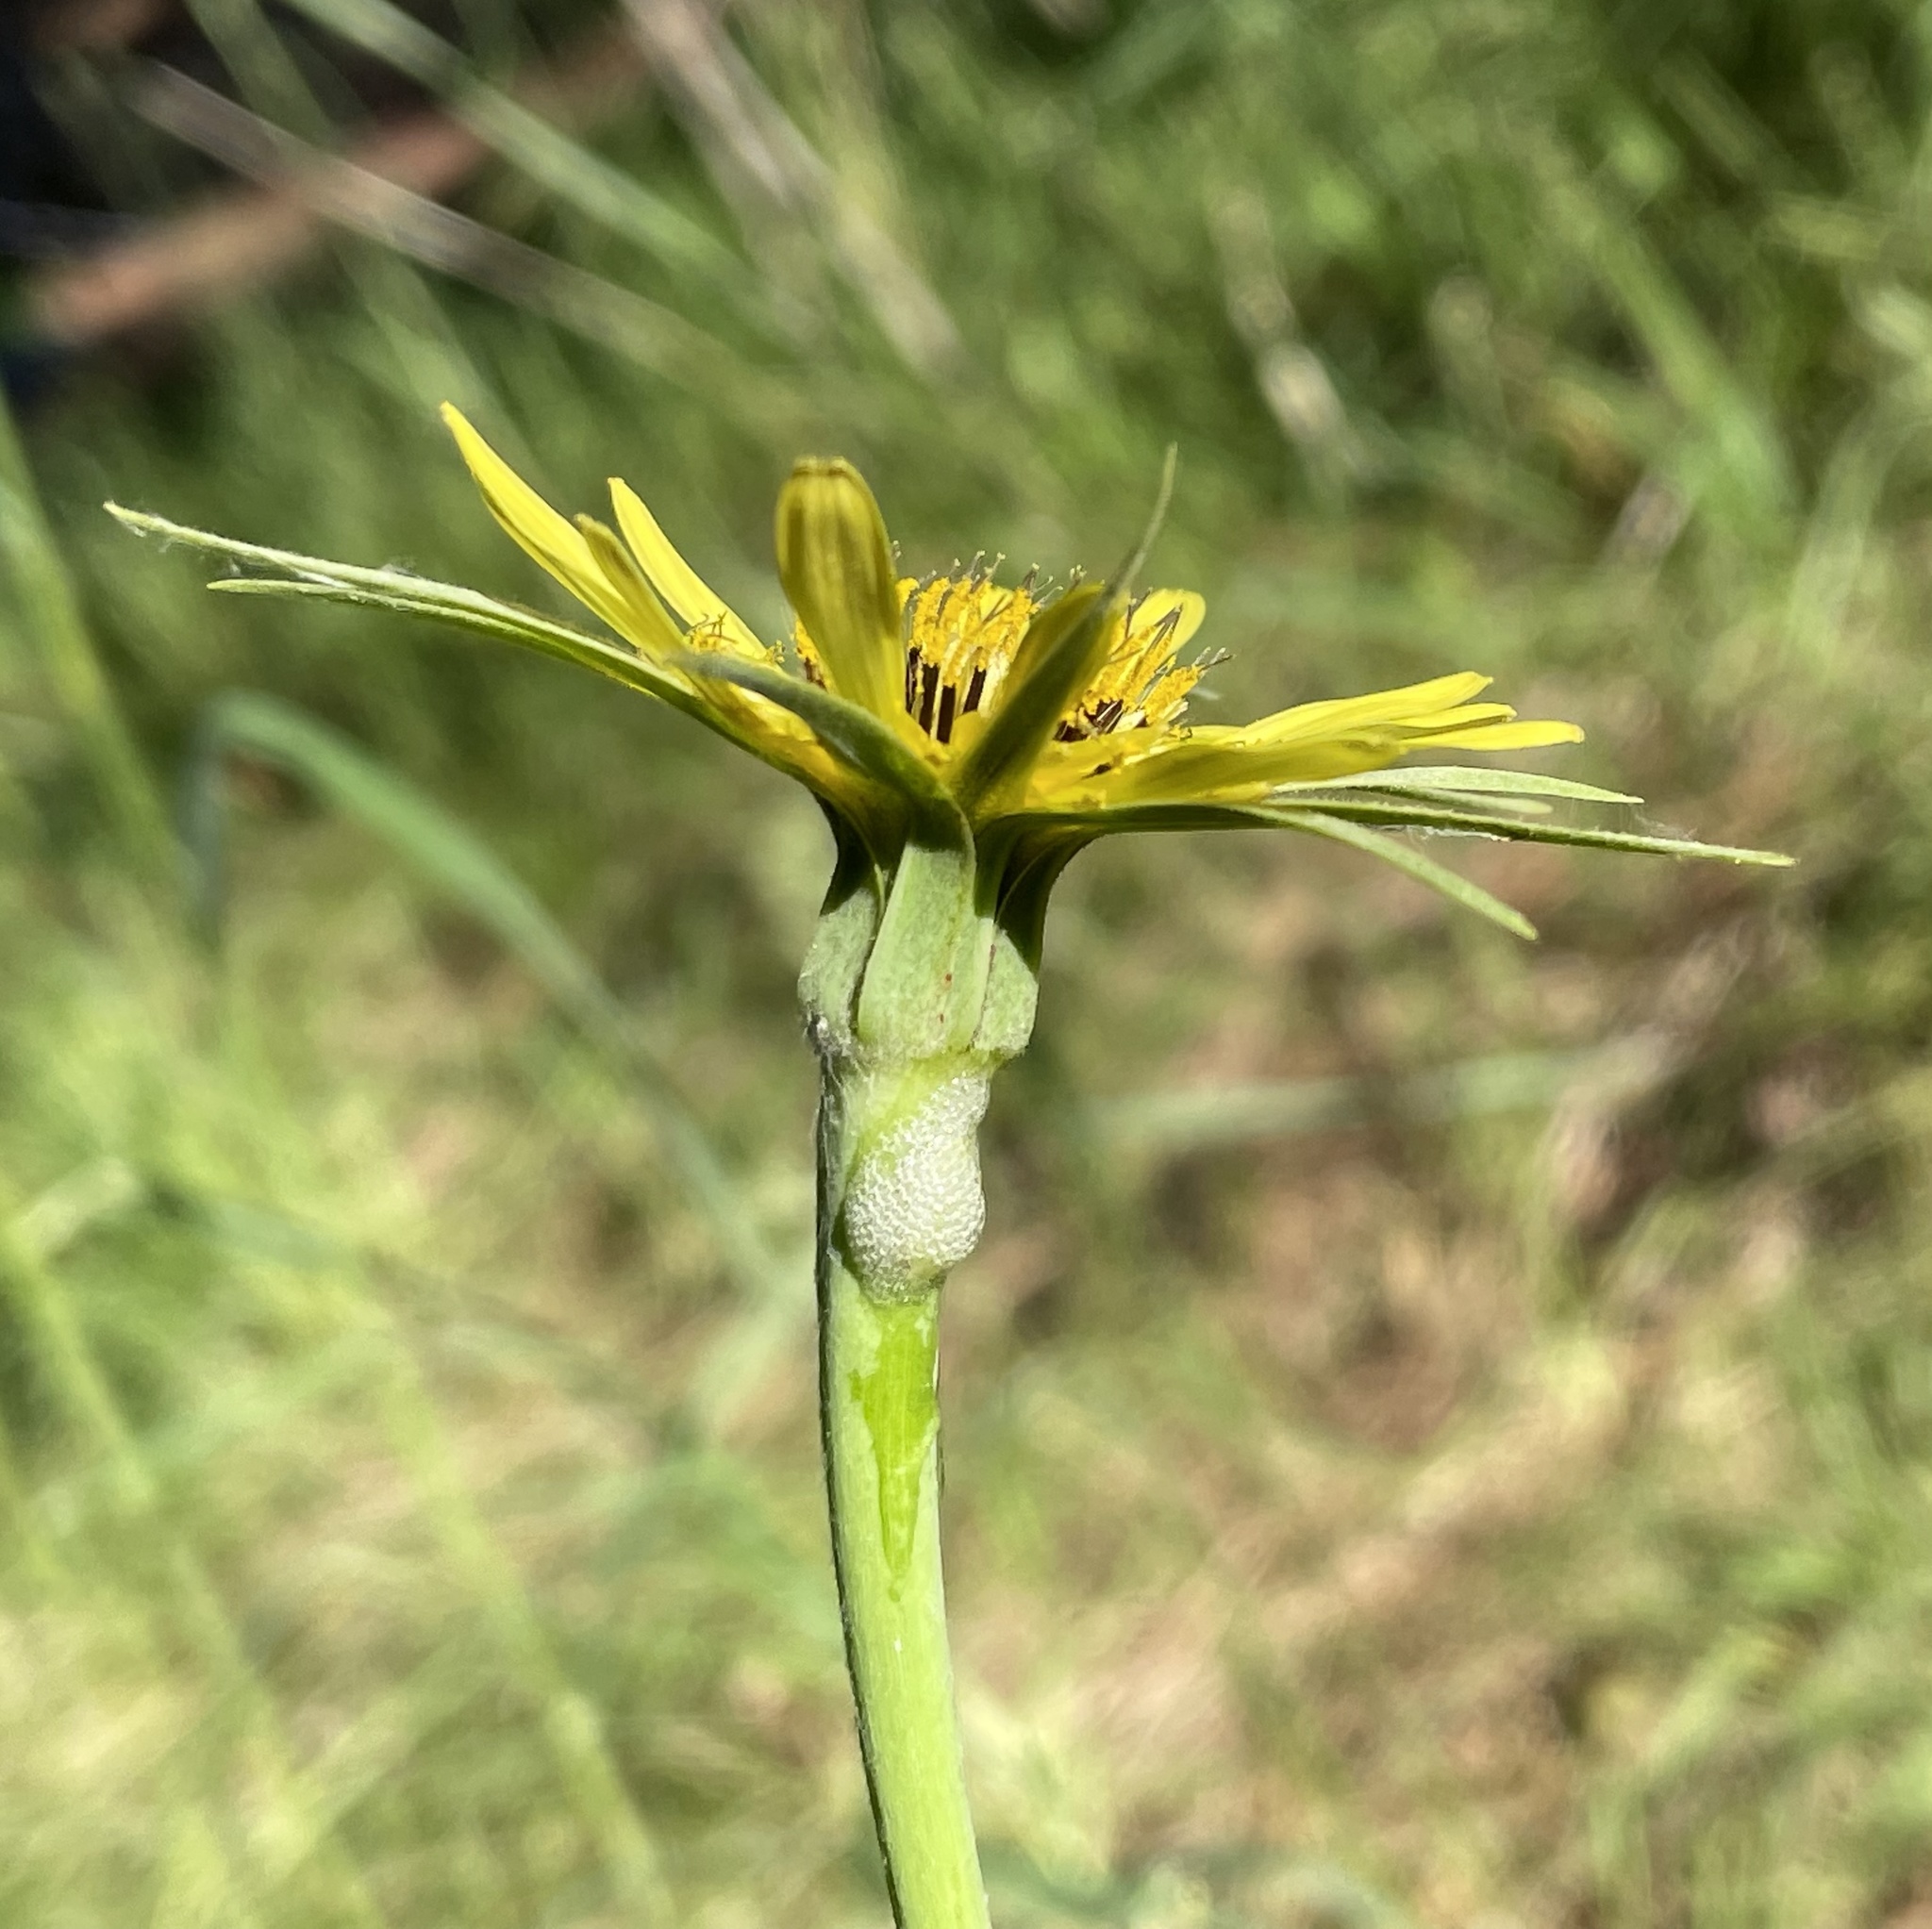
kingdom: Plantae
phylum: Tracheophyta
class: Magnoliopsida
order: Asterales
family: Asteraceae
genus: Tragopogon
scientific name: Tragopogon dubius
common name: Yellow salsify
